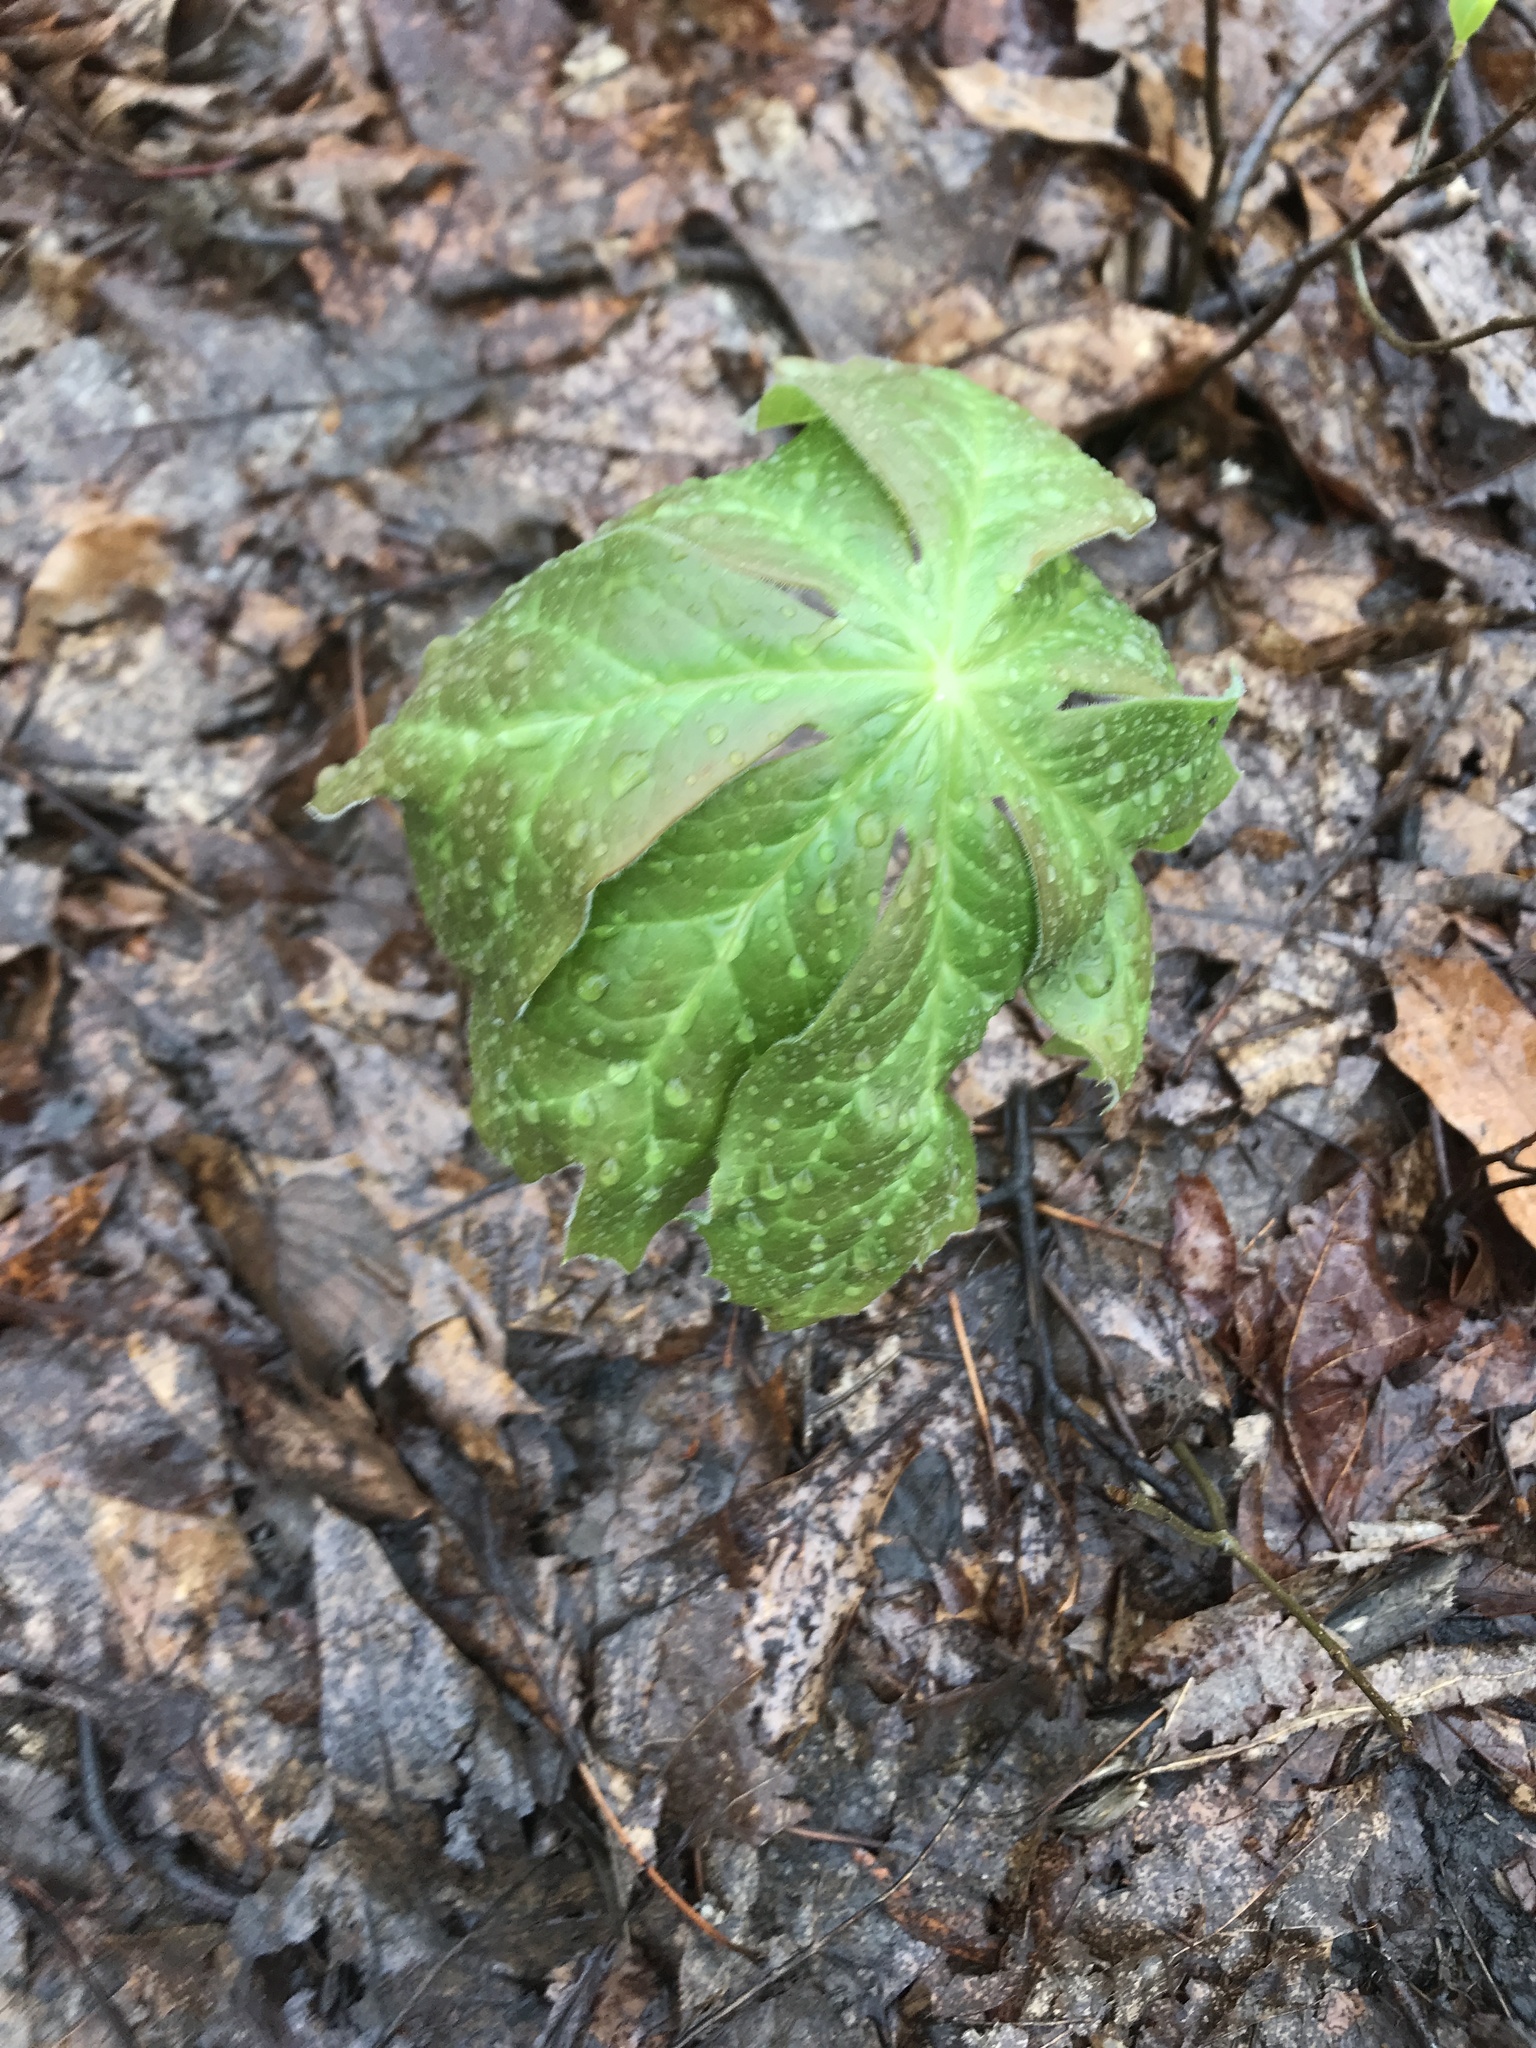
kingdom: Plantae
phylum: Tracheophyta
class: Magnoliopsida
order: Ranunculales
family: Berberidaceae
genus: Podophyllum
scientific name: Podophyllum peltatum
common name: Wild mandrake
